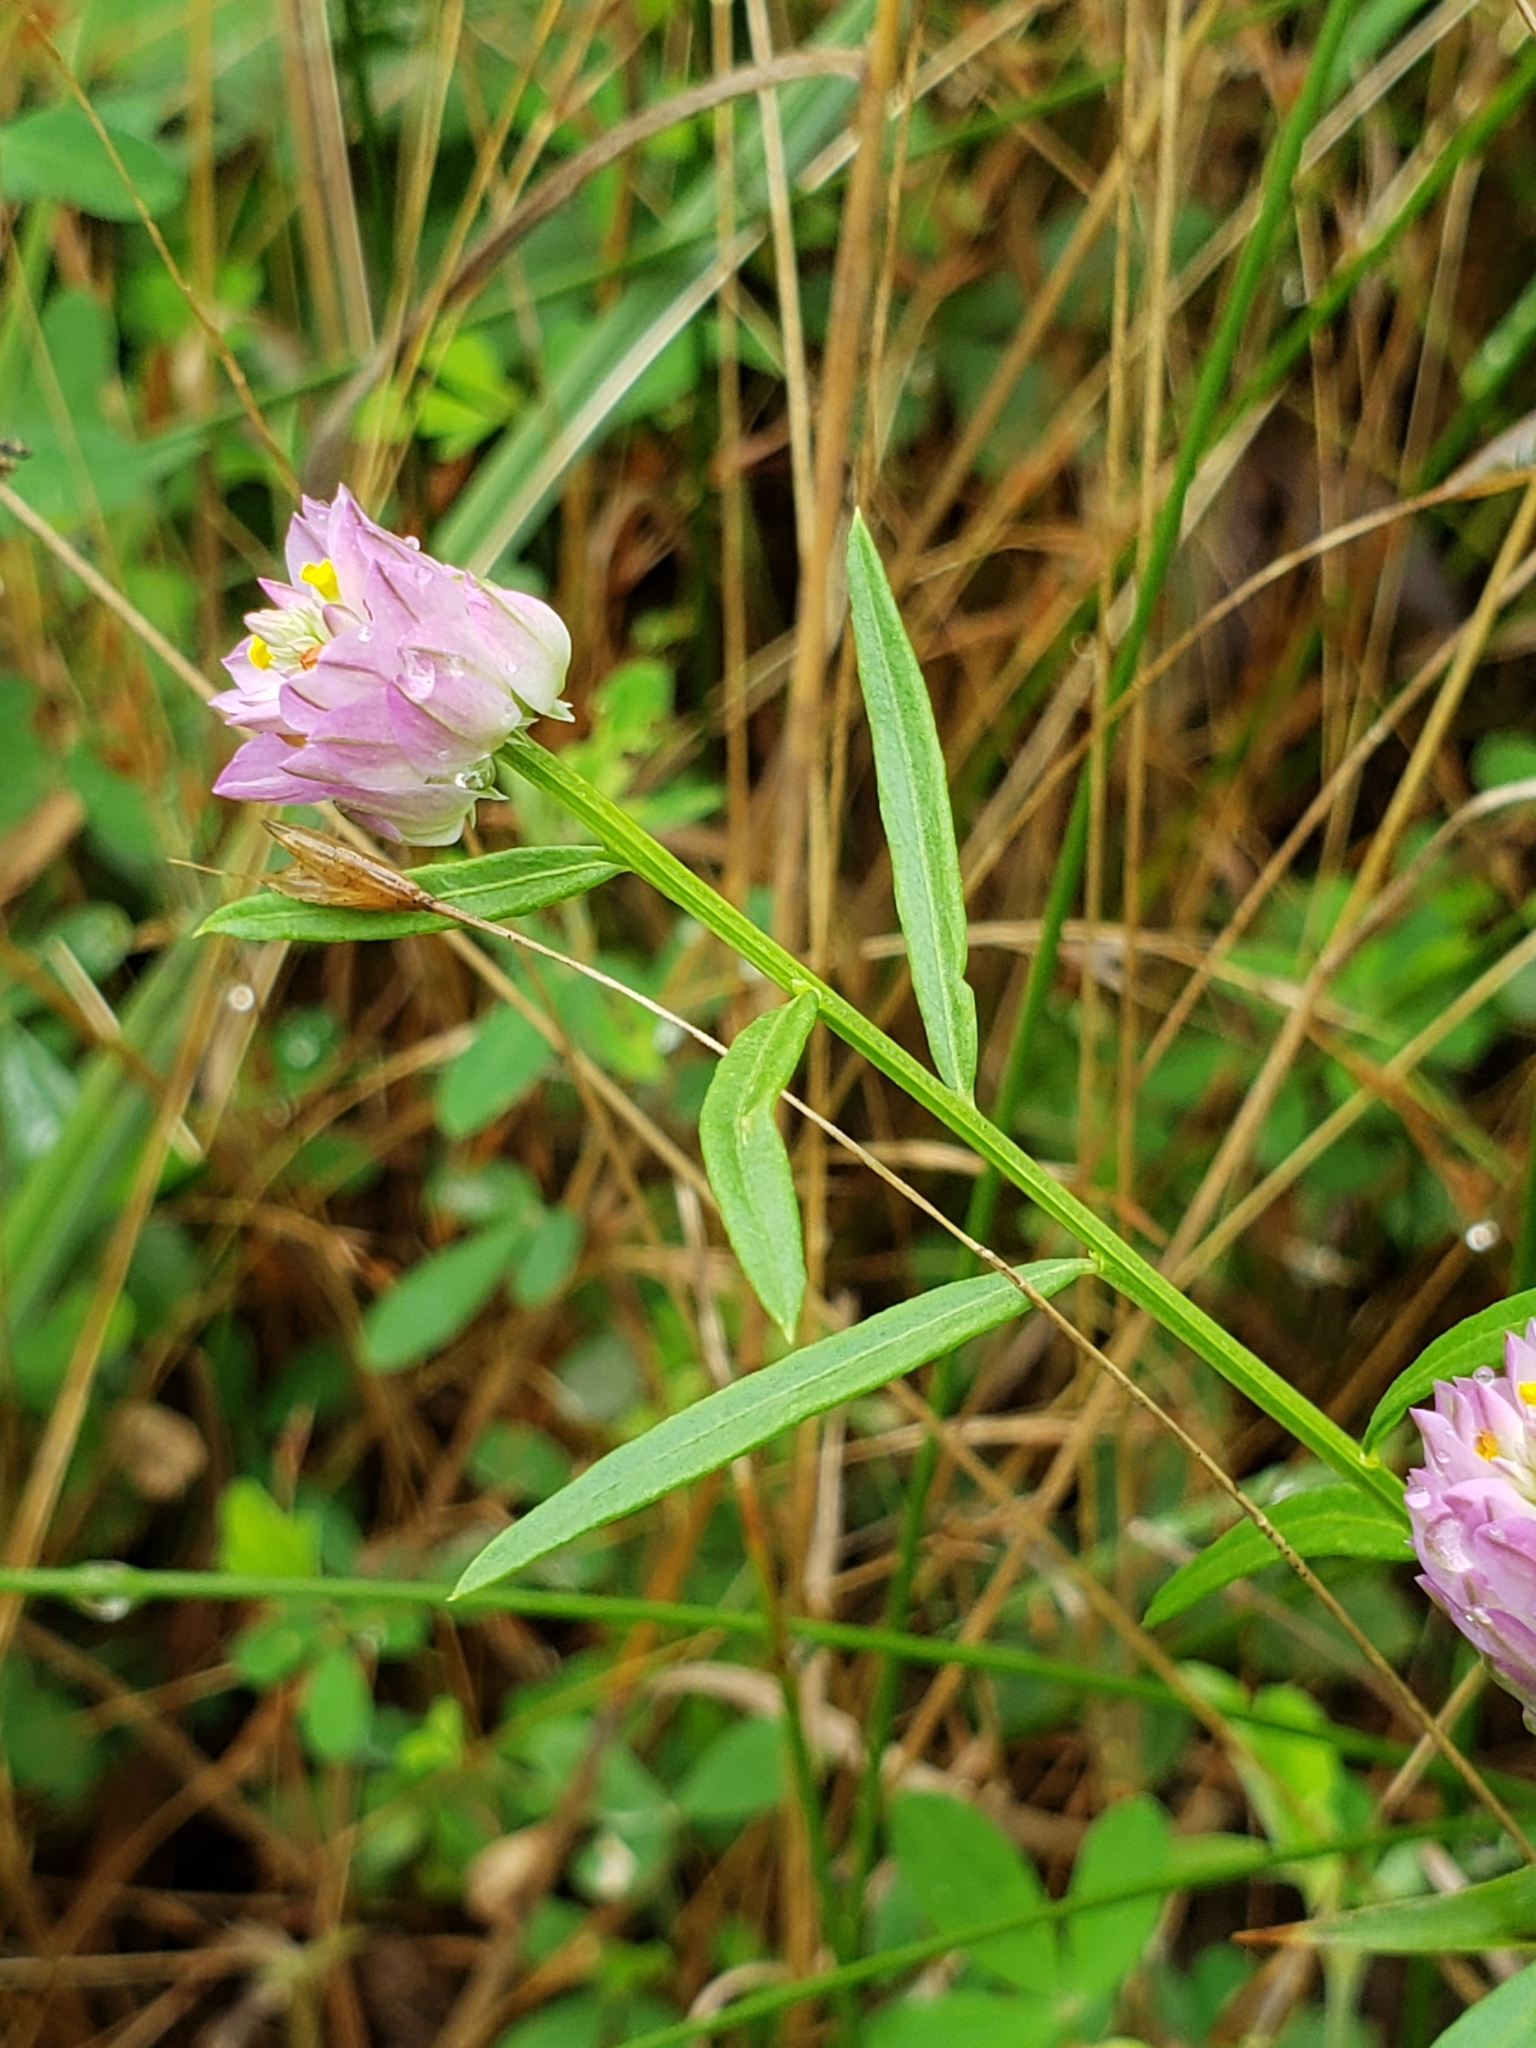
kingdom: Plantae
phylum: Tracheophyta
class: Magnoliopsida
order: Fabales
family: Polygalaceae
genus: Polygala
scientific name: Polygala sanguinea
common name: Blood milkwort
